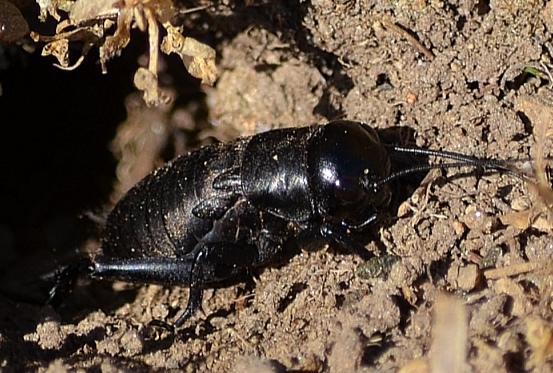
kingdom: Animalia
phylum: Arthropoda
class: Insecta
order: Orthoptera
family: Gryllidae
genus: Gryllus
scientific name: Gryllus campestris
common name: Field cricket
